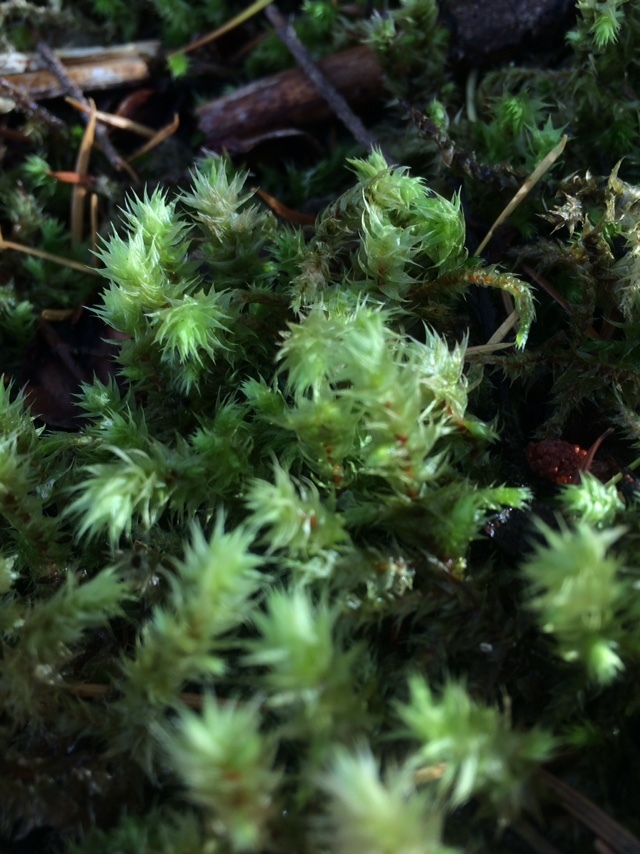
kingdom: Plantae
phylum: Bryophyta
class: Bryopsida
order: Hypnales
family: Hylocomiaceae
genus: Hylocomiadelphus
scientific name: Hylocomiadelphus triquetrus
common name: Rough goose neck moss
